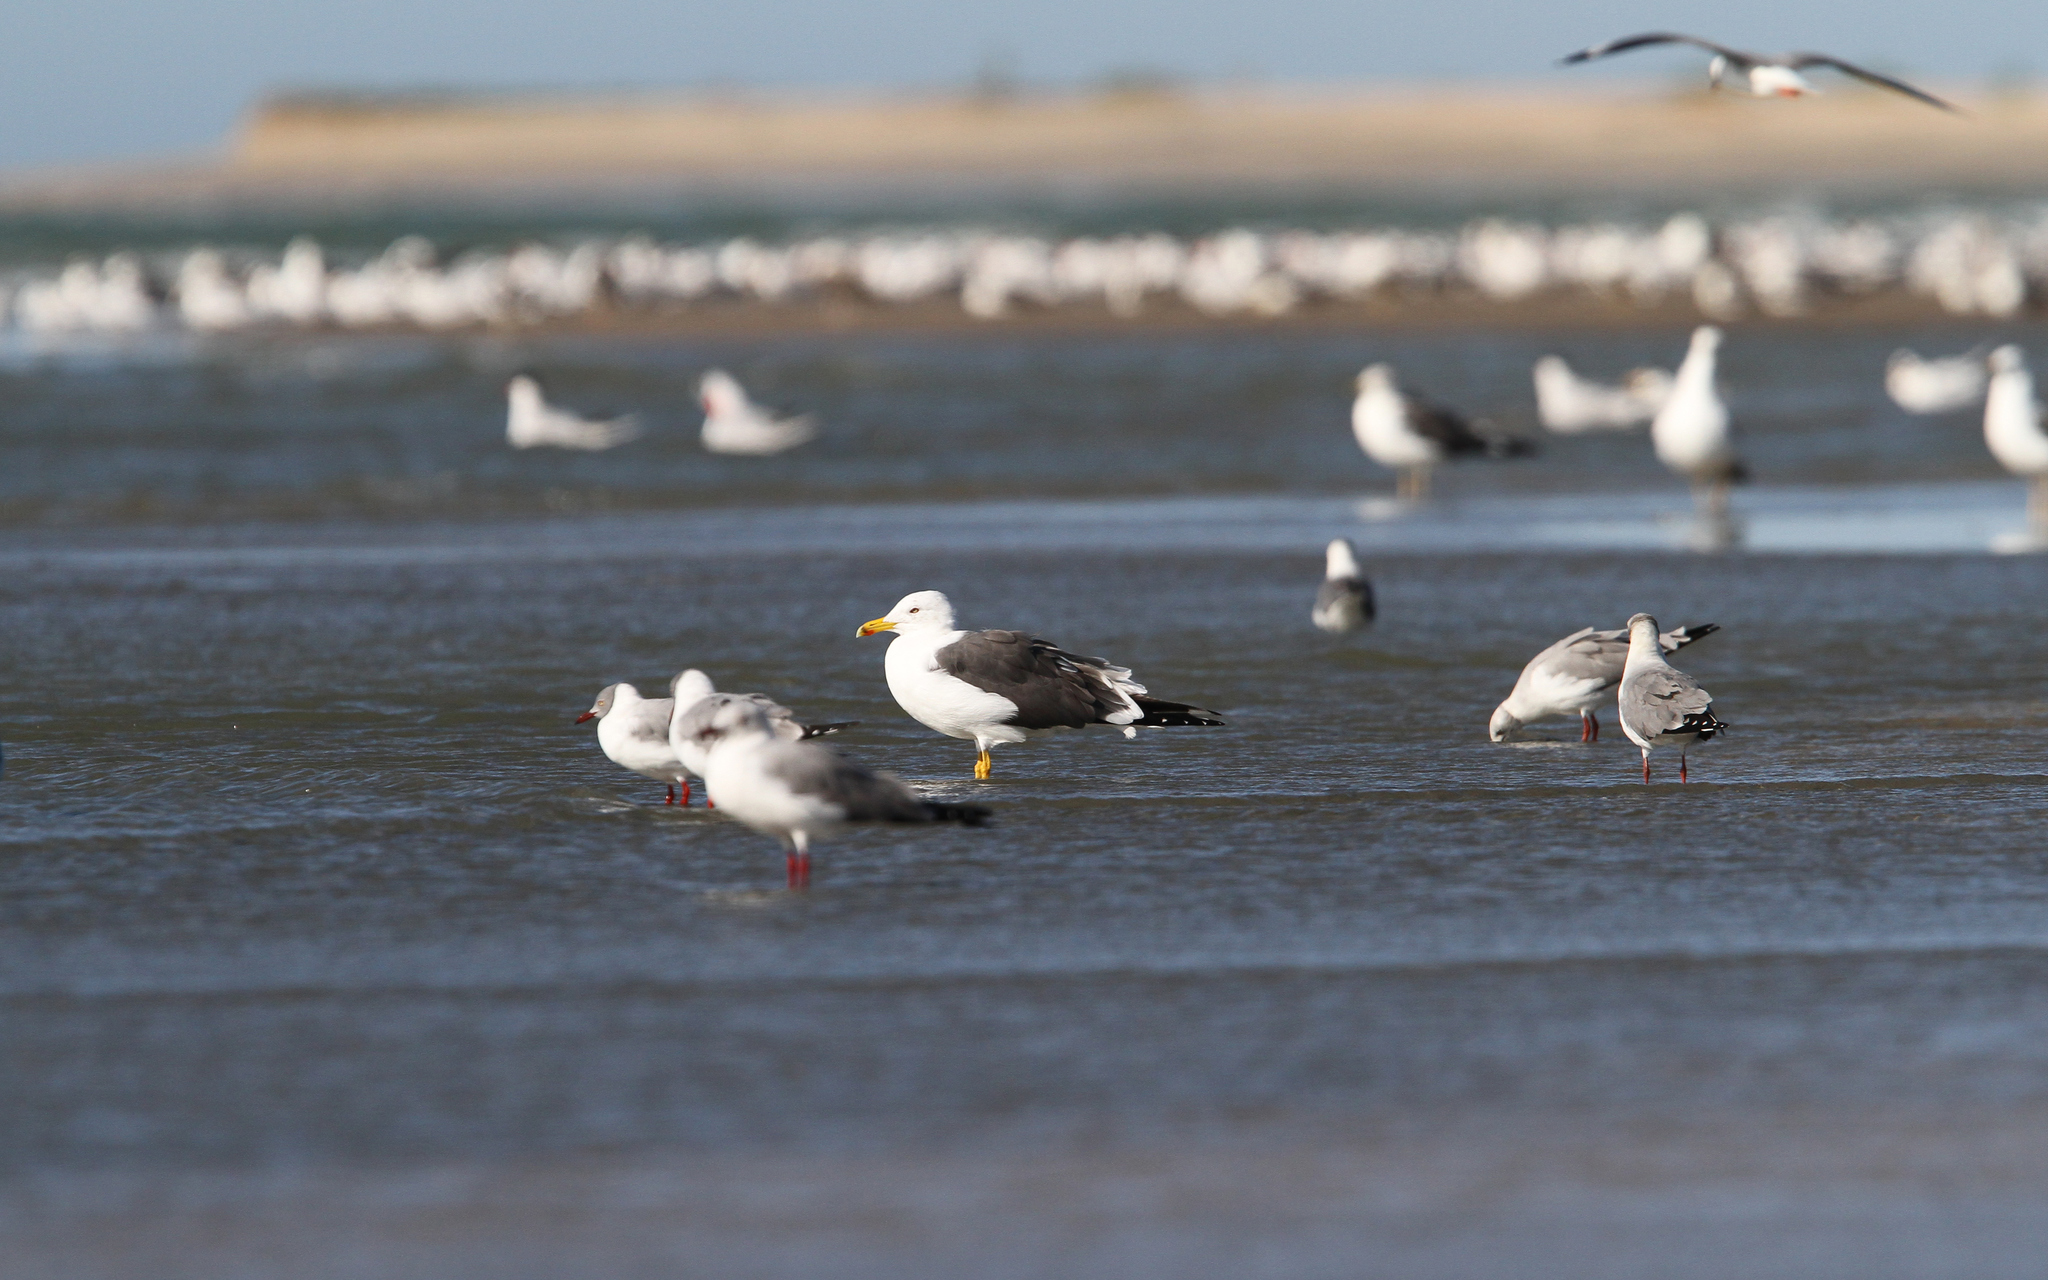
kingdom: Animalia
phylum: Chordata
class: Aves
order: Charadriiformes
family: Laridae
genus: Larus
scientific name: Larus fuscus
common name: Lesser black-backed gull
